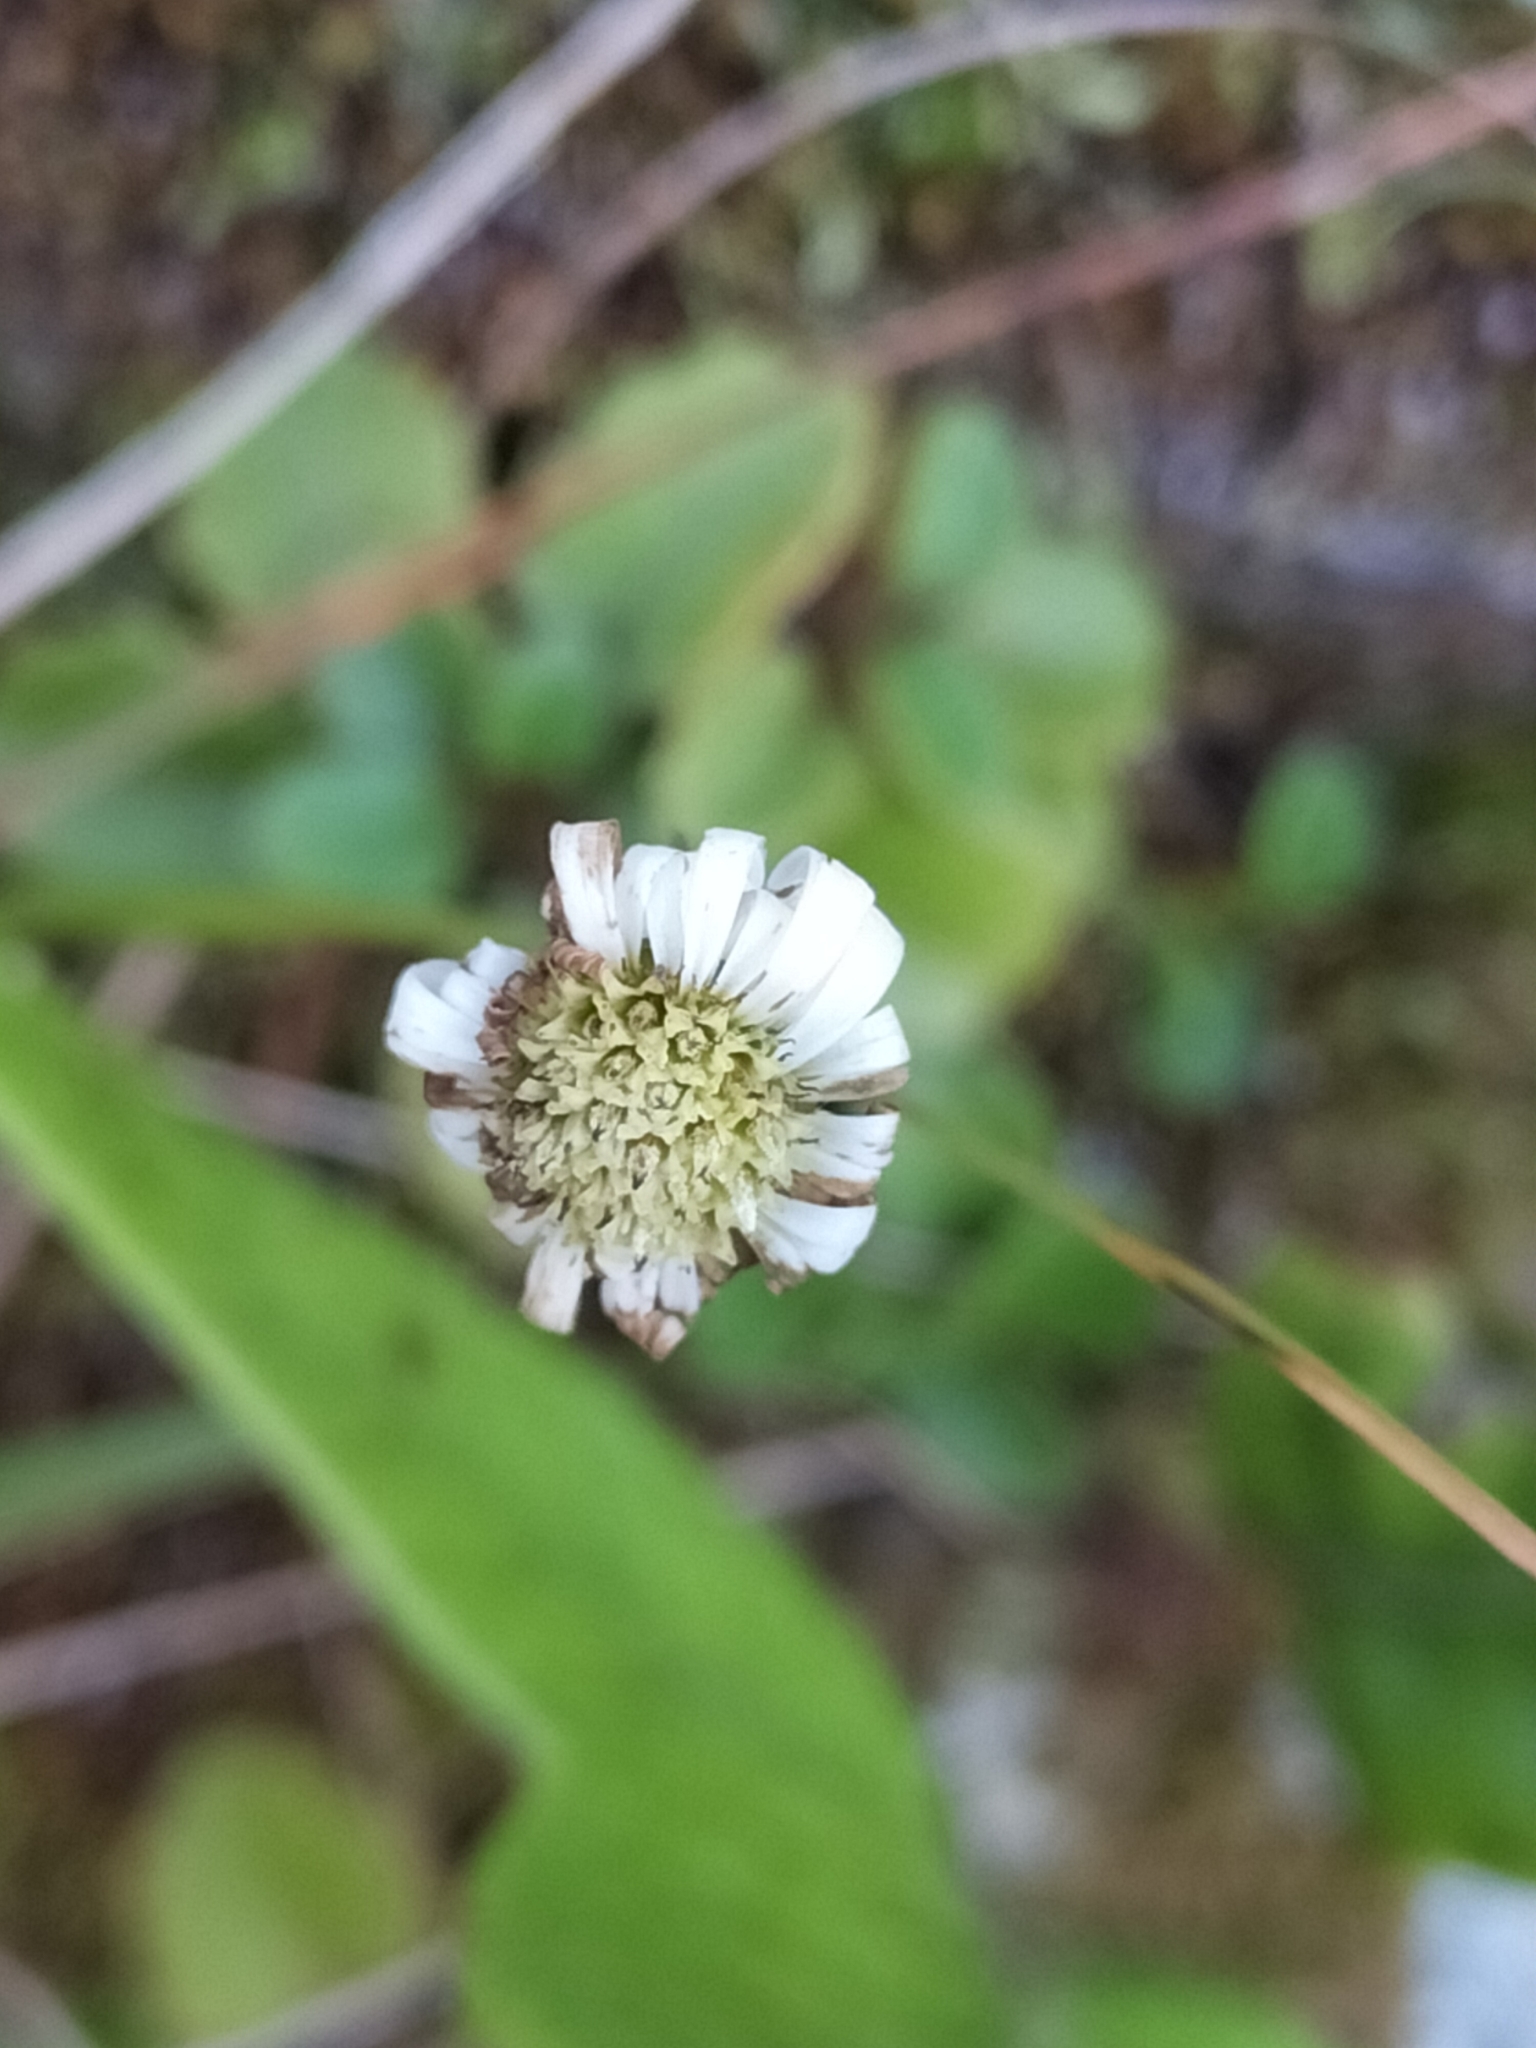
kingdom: Plantae
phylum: Tracheophyta
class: Magnoliopsida
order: Asterales
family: Asteraceae
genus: Lagenophora
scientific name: Lagenophora pumila
